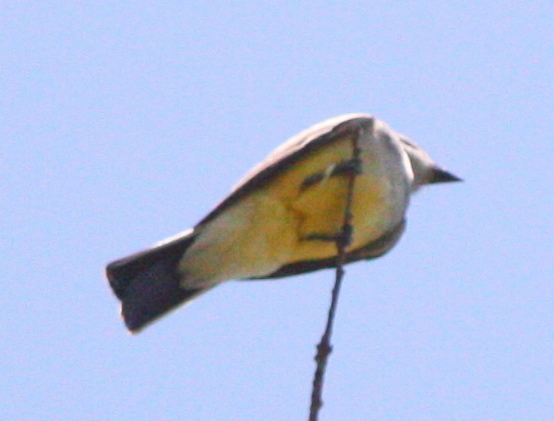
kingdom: Animalia
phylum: Chordata
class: Aves
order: Passeriformes
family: Tyrannidae
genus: Tyrannus
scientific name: Tyrannus verticalis
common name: Western kingbird
